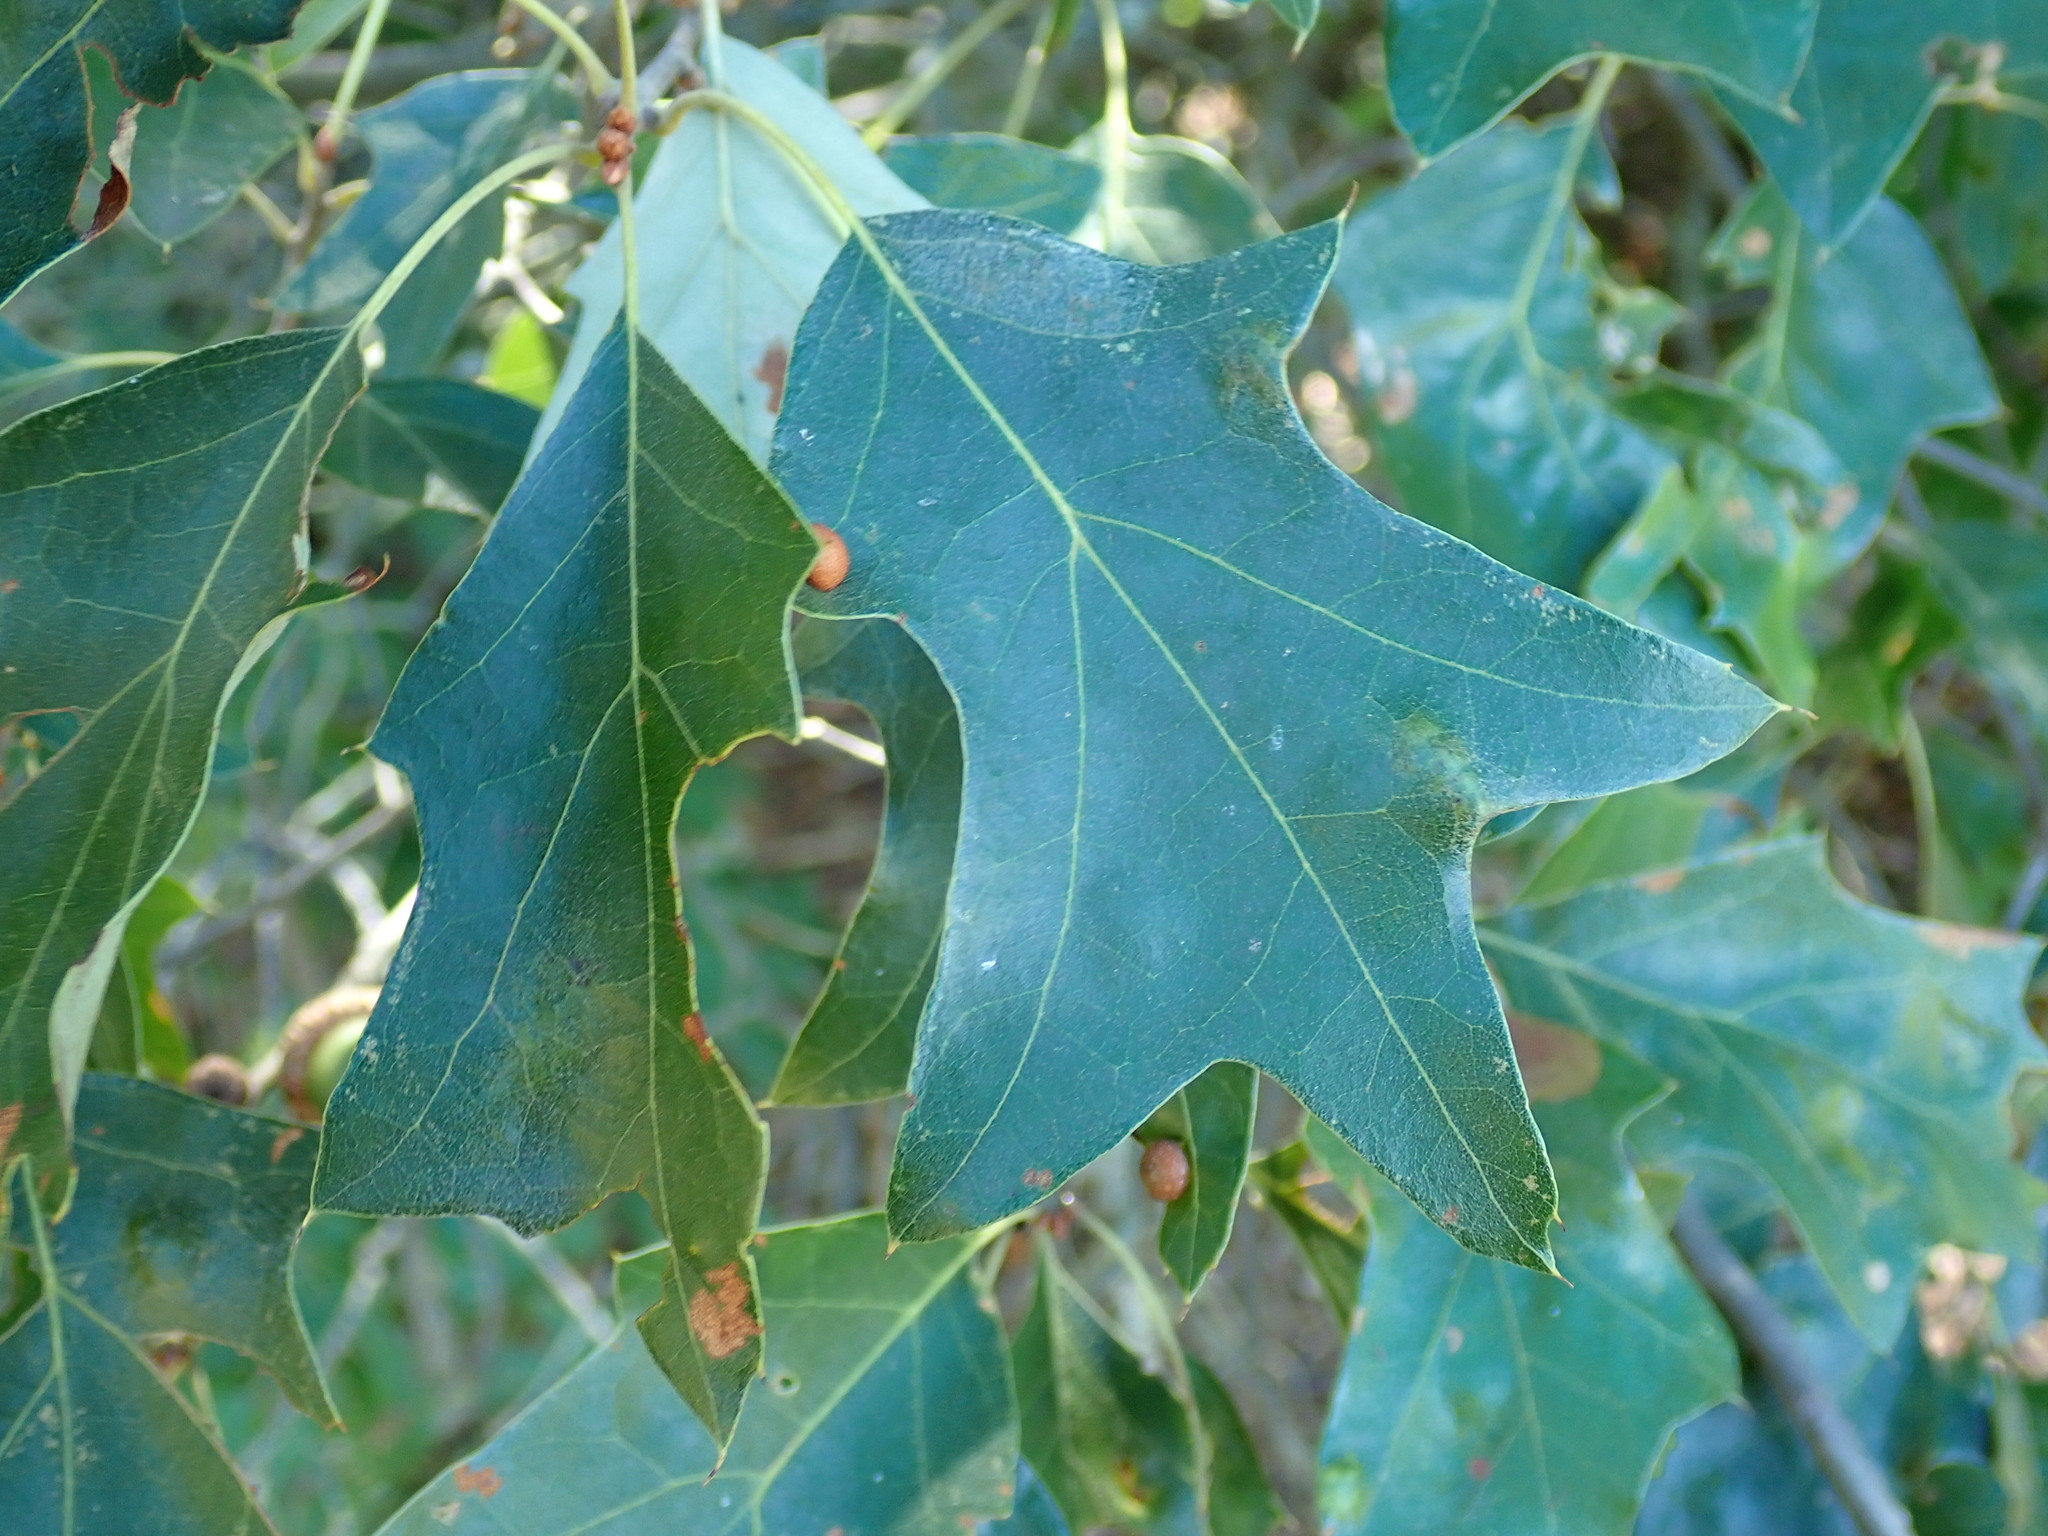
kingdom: Plantae
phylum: Tracheophyta
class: Magnoliopsida
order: Fagales
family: Fagaceae
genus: Quercus
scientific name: Quercus ilicifolia
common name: Bear oak
